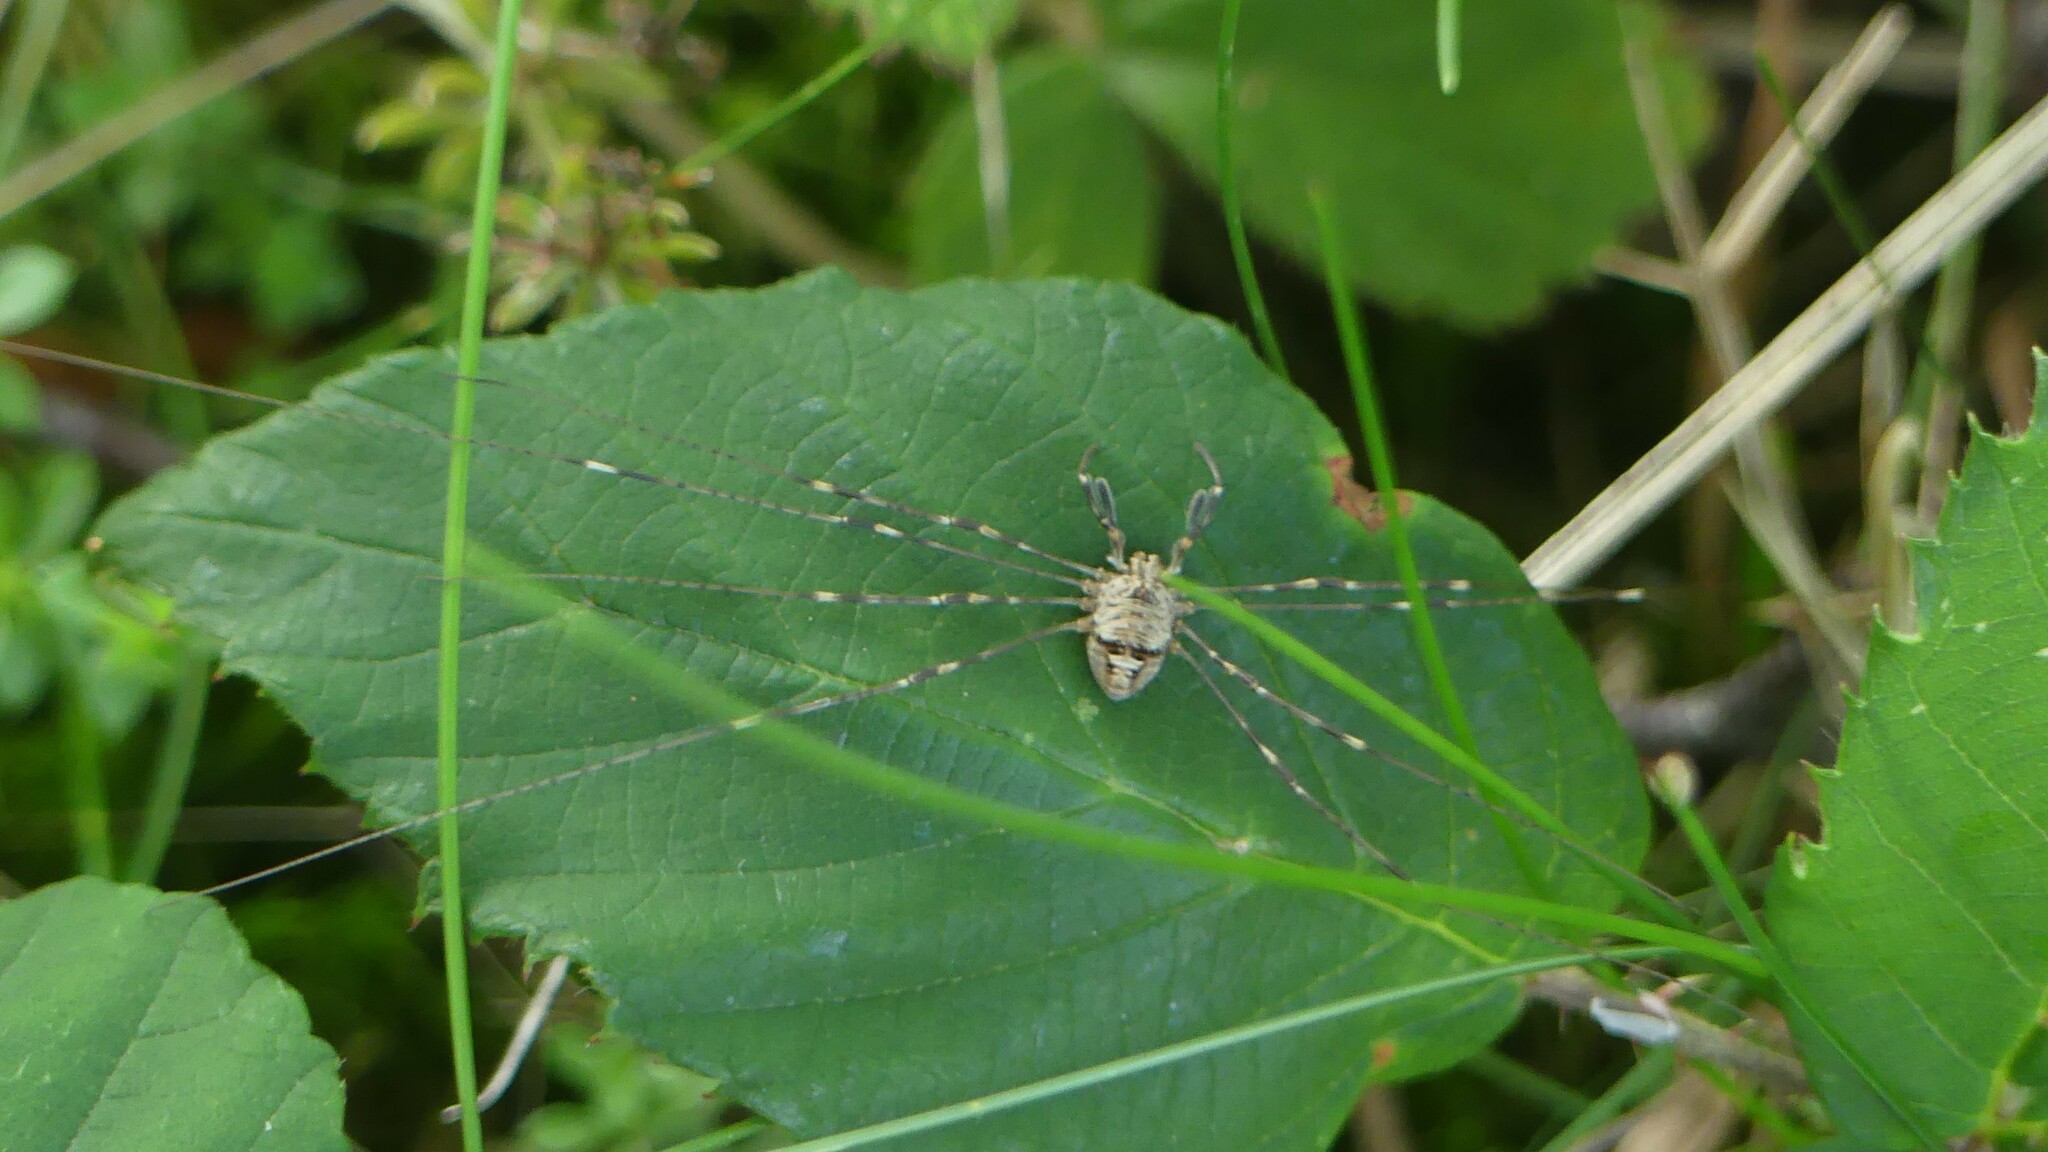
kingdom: Animalia
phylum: Arthropoda
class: Arachnida
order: Opiliones
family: Phalangiidae
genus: Dicranopalpus
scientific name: Dicranopalpus ramosus
